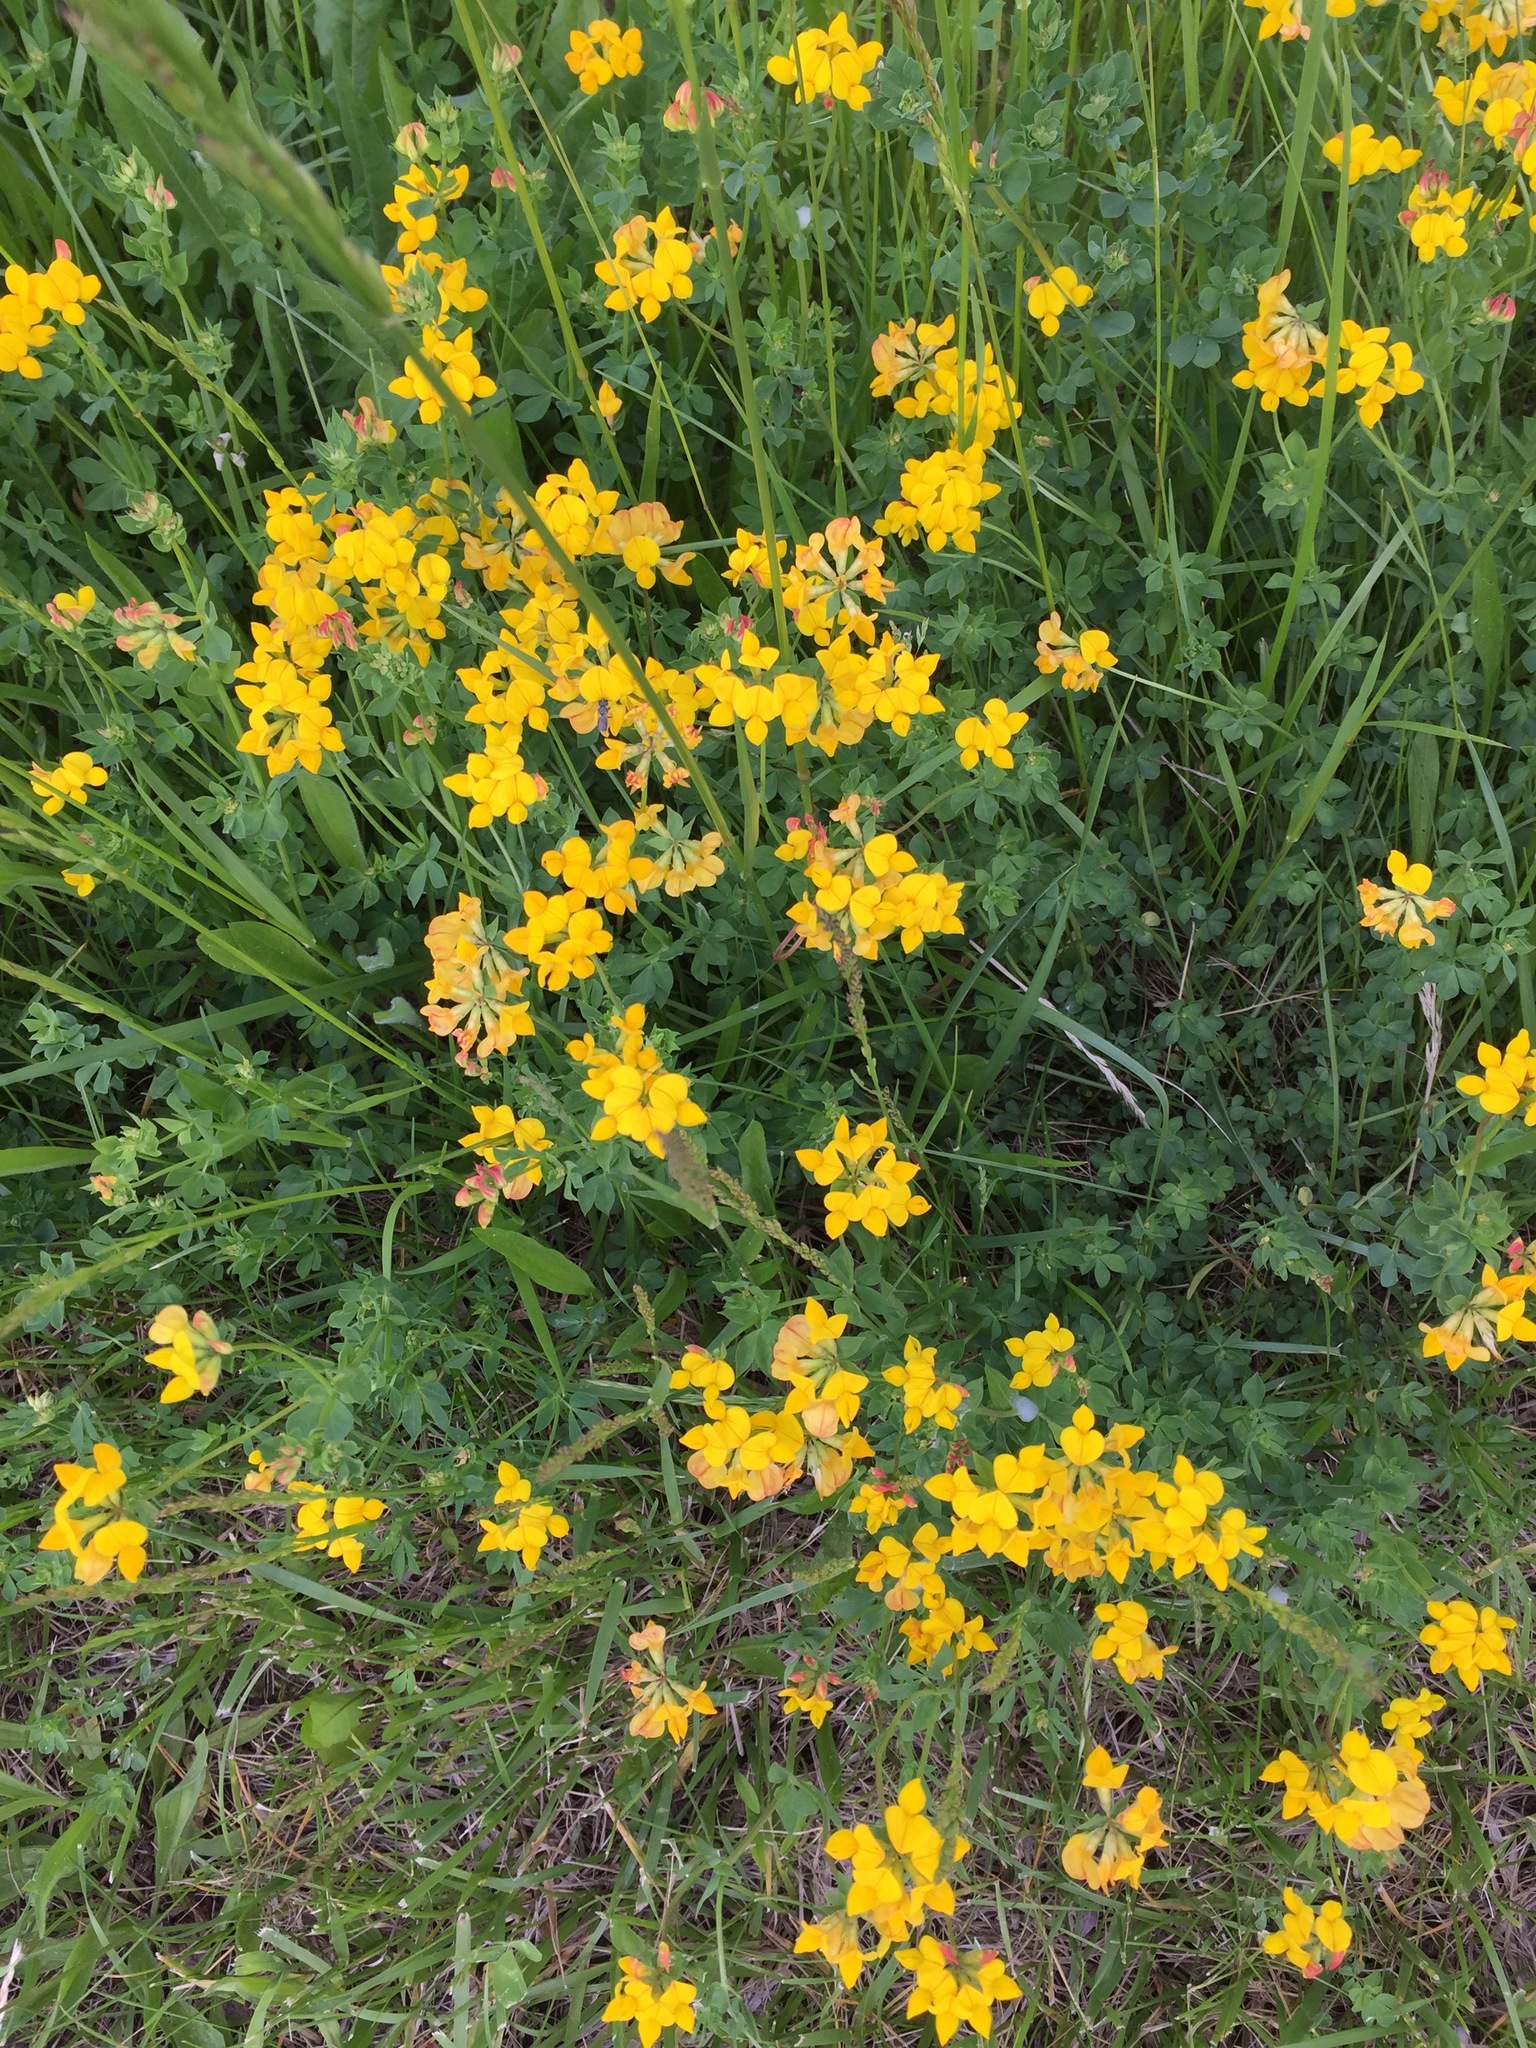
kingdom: Plantae
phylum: Tracheophyta
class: Magnoliopsida
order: Fabales
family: Fabaceae
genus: Lotus
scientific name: Lotus corniculatus
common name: Common bird's-foot-trefoil
